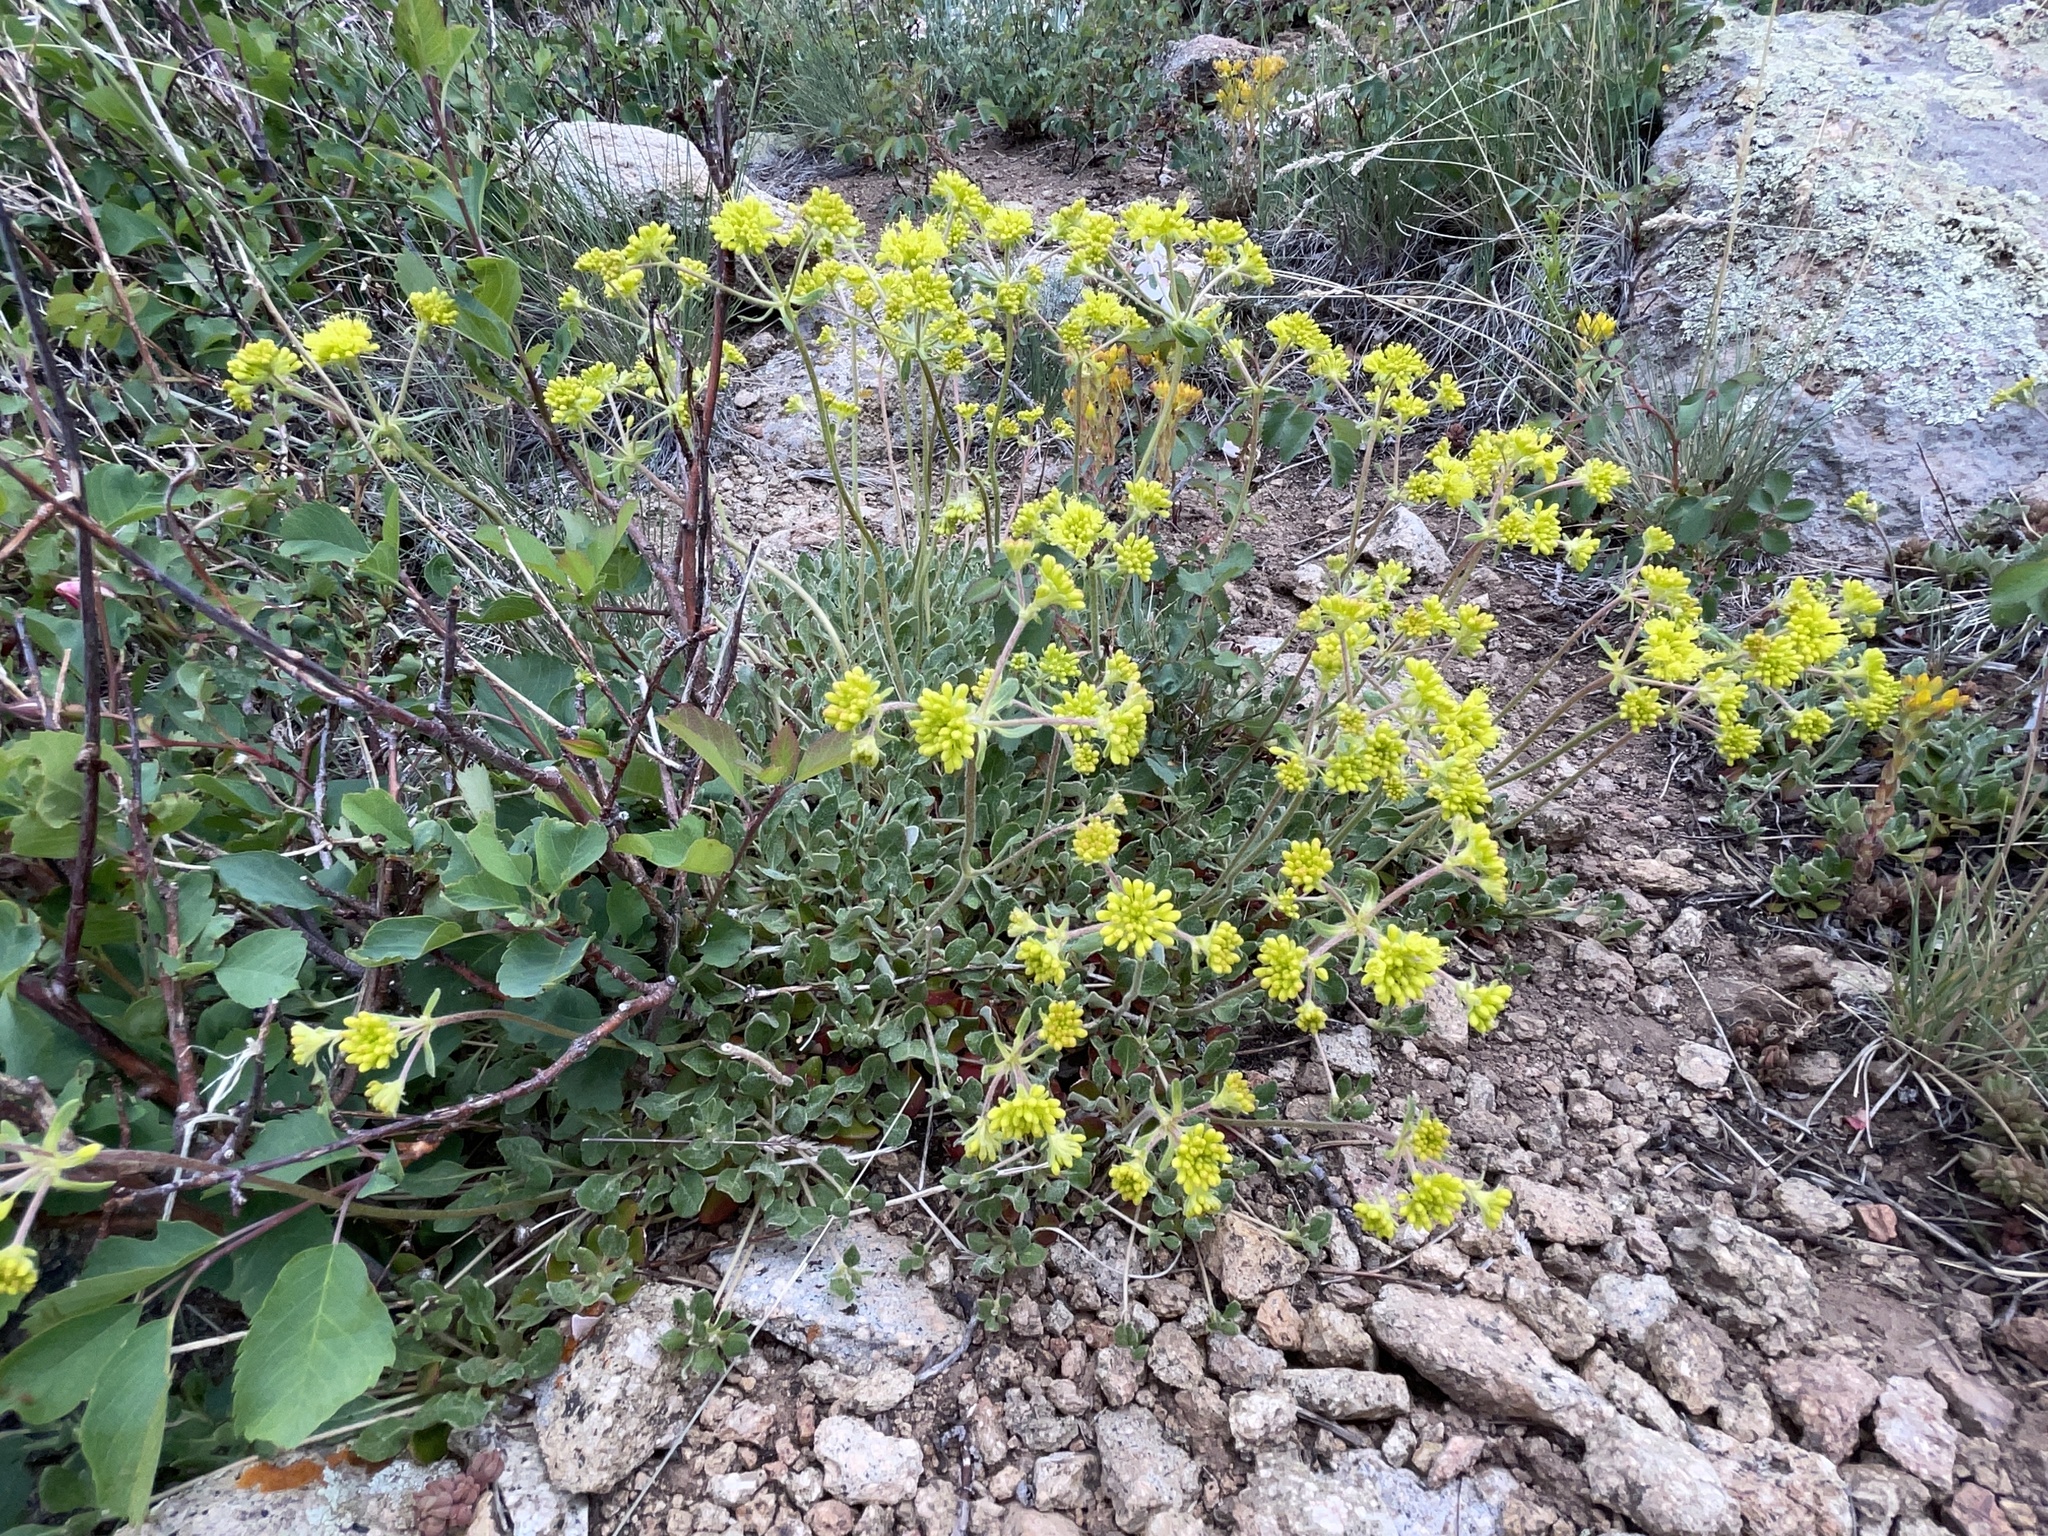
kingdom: Plantae
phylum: Tracheophyta
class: Magnoliopsida
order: Caryophyllales
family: Polygonaceae
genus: Eriogonum
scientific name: Eriogonum umbellatum
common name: Sulfur-buckwheat
